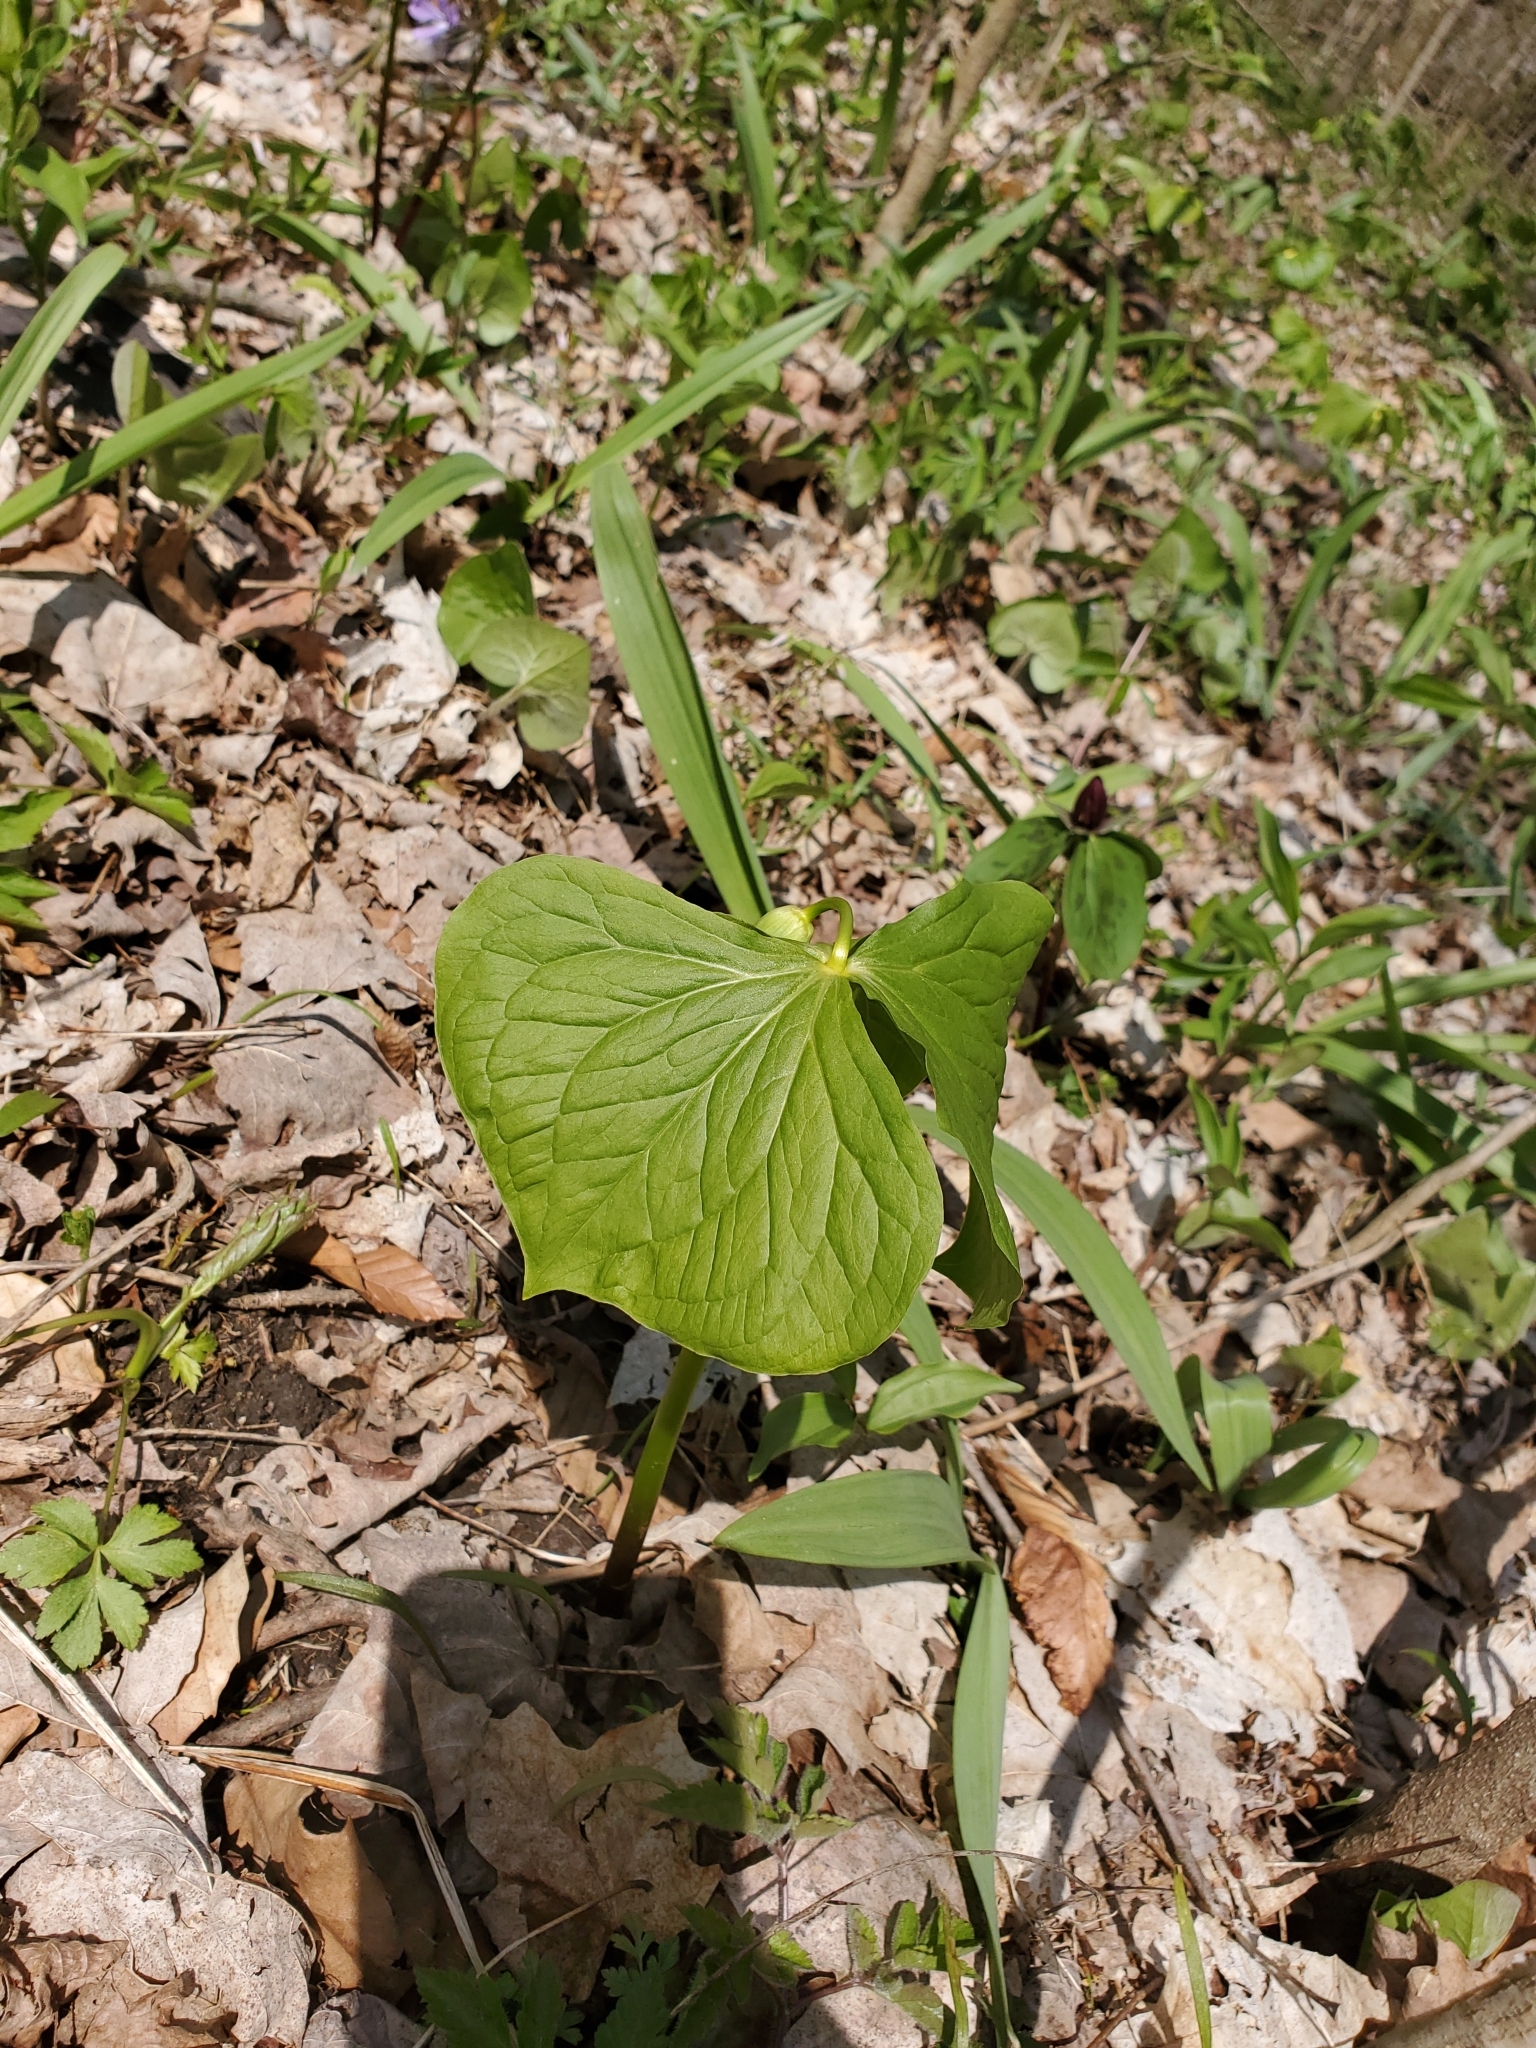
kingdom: Plantae
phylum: Tracheophyta
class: Liliopsida
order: Liliales
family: Melanthiaceae
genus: Trillium
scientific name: Trillium flexipes
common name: Drooping trillium
